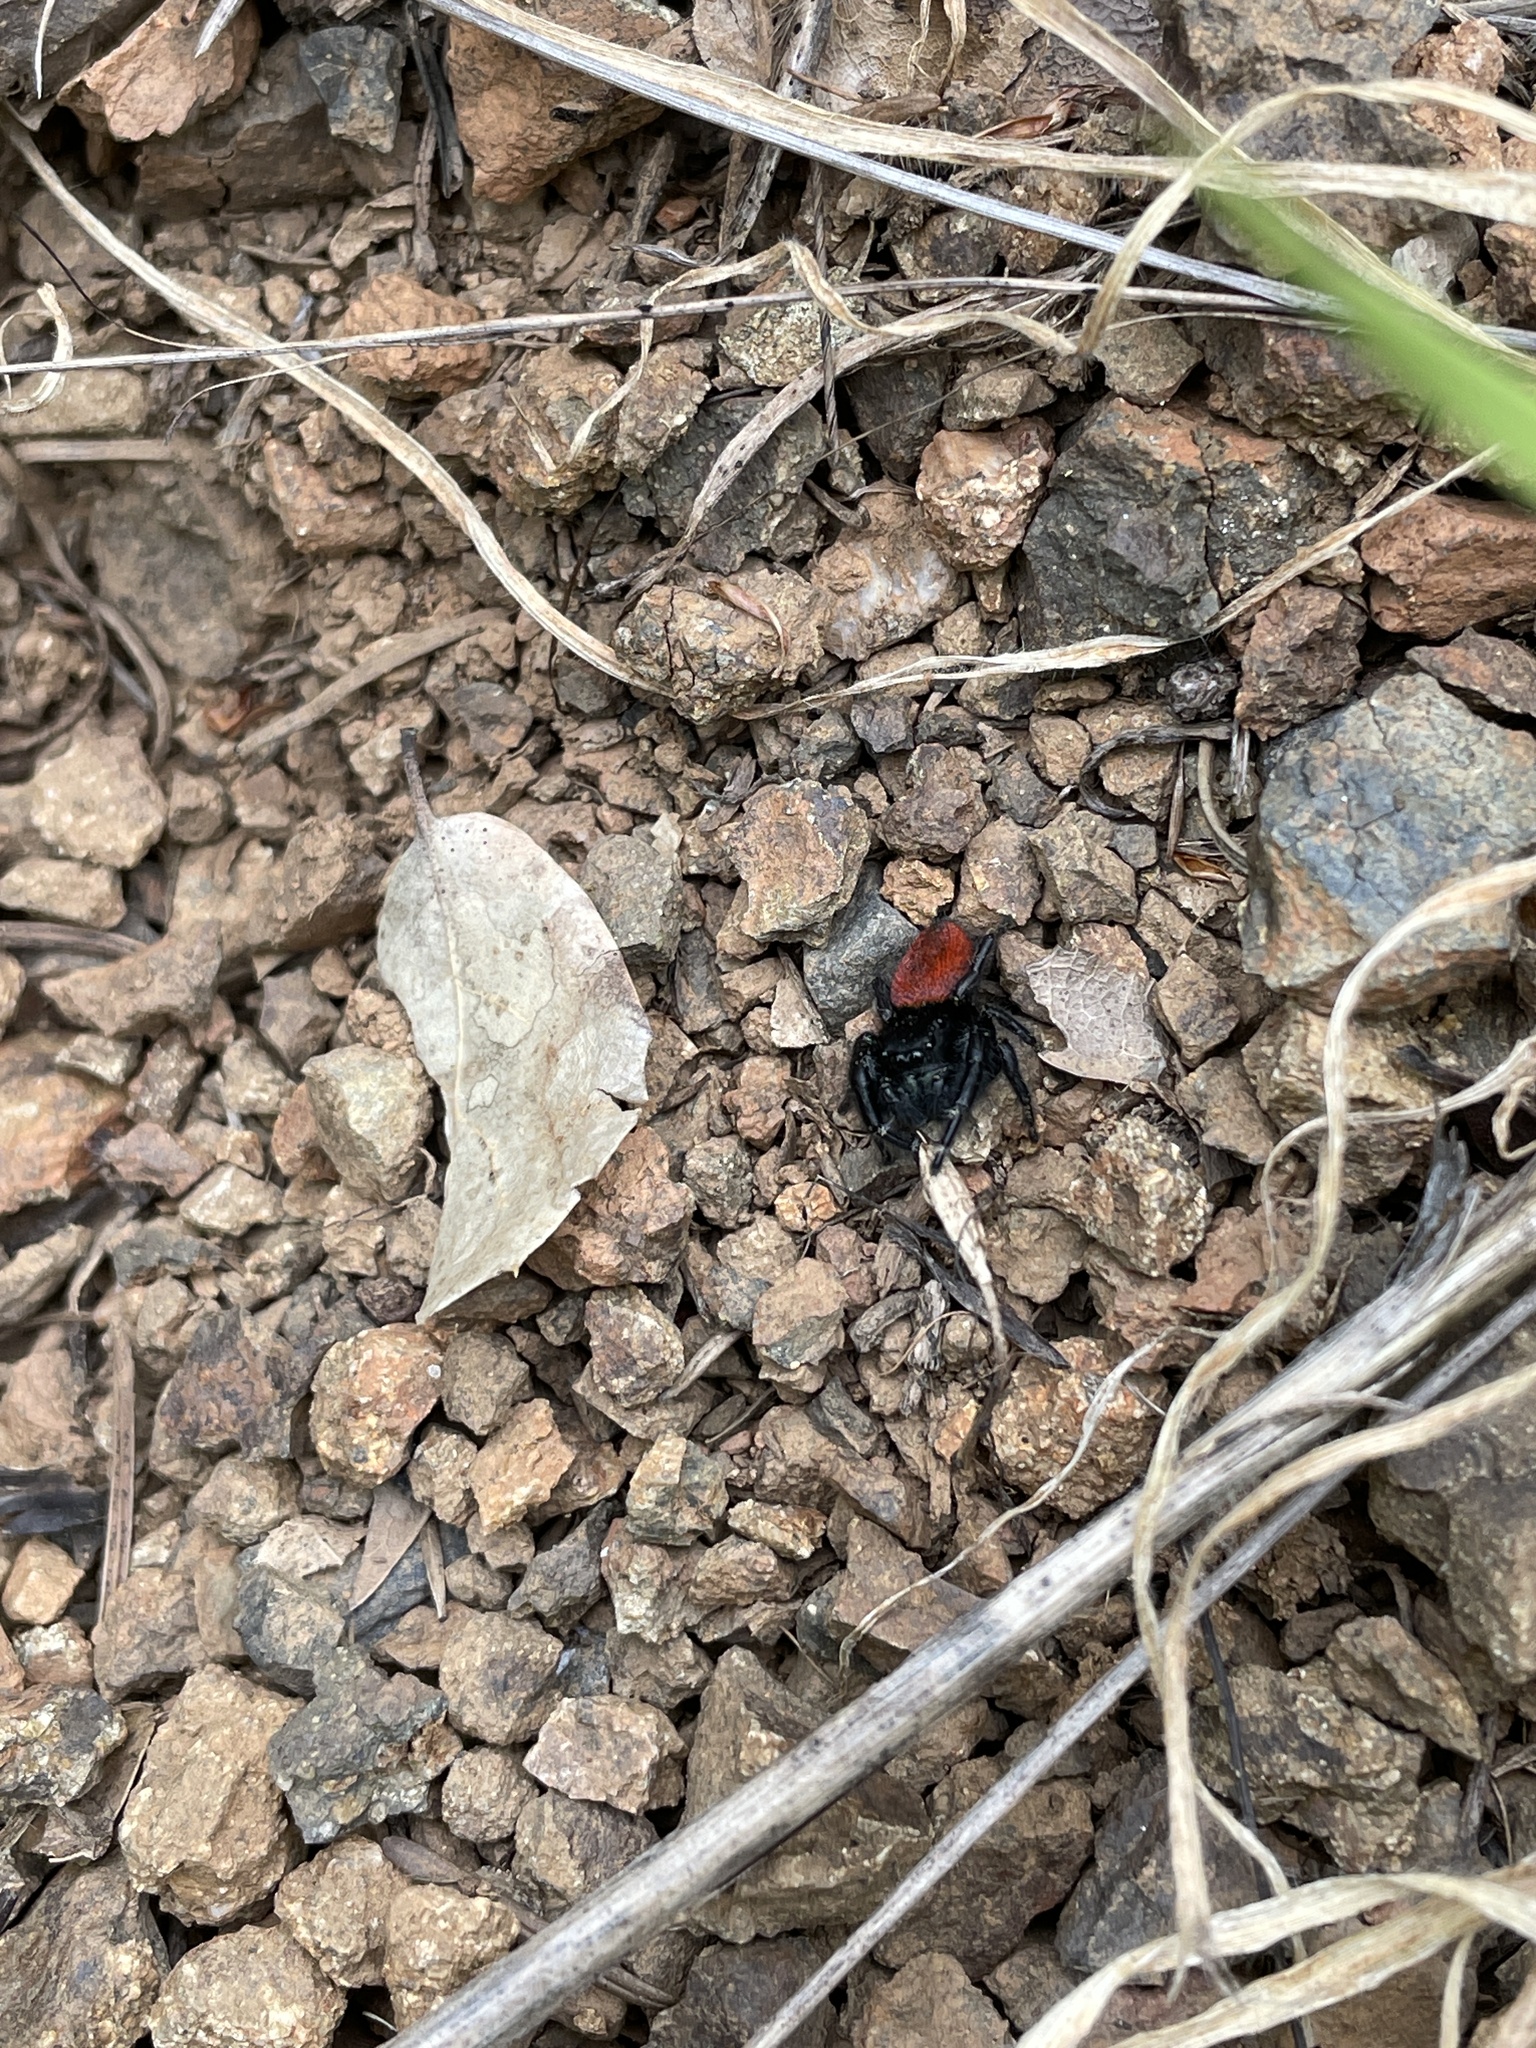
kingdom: Animalia
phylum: Arthropoda
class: Arachnida
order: Araneae
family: Salticidae
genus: Phidippus
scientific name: Phidippus johnsoni
